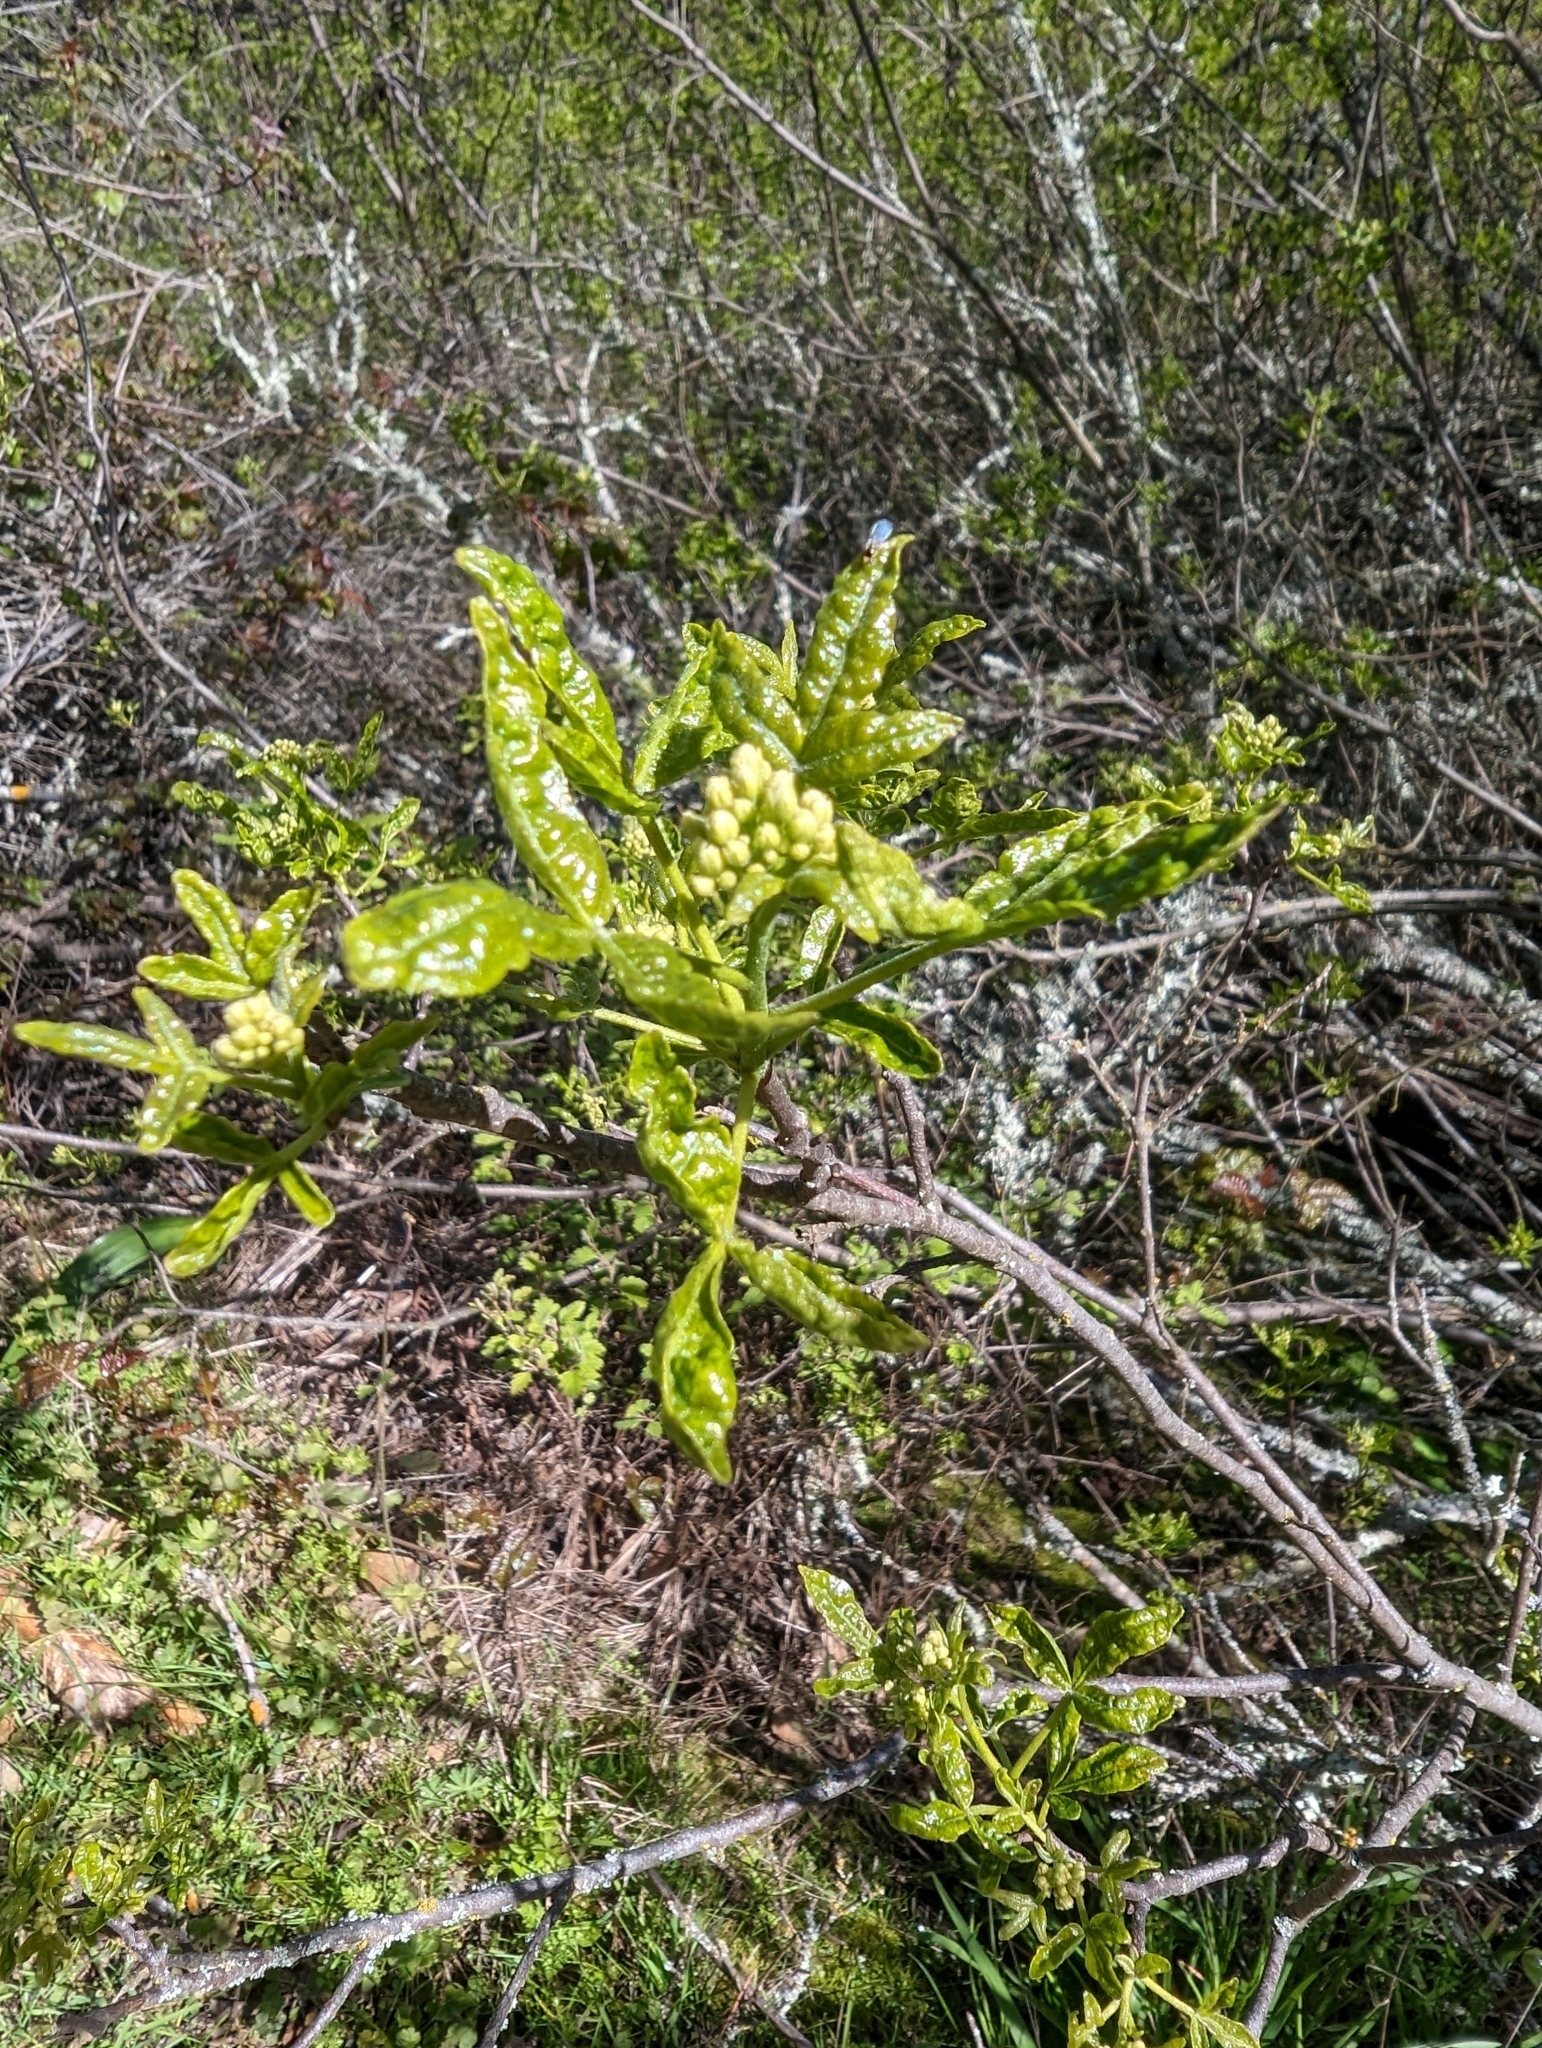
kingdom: Plantae
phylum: Tracheophyta
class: Magnoliopsida
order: Sapindales
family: Rutaceae
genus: Ptelea
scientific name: Ptelea crenulata
